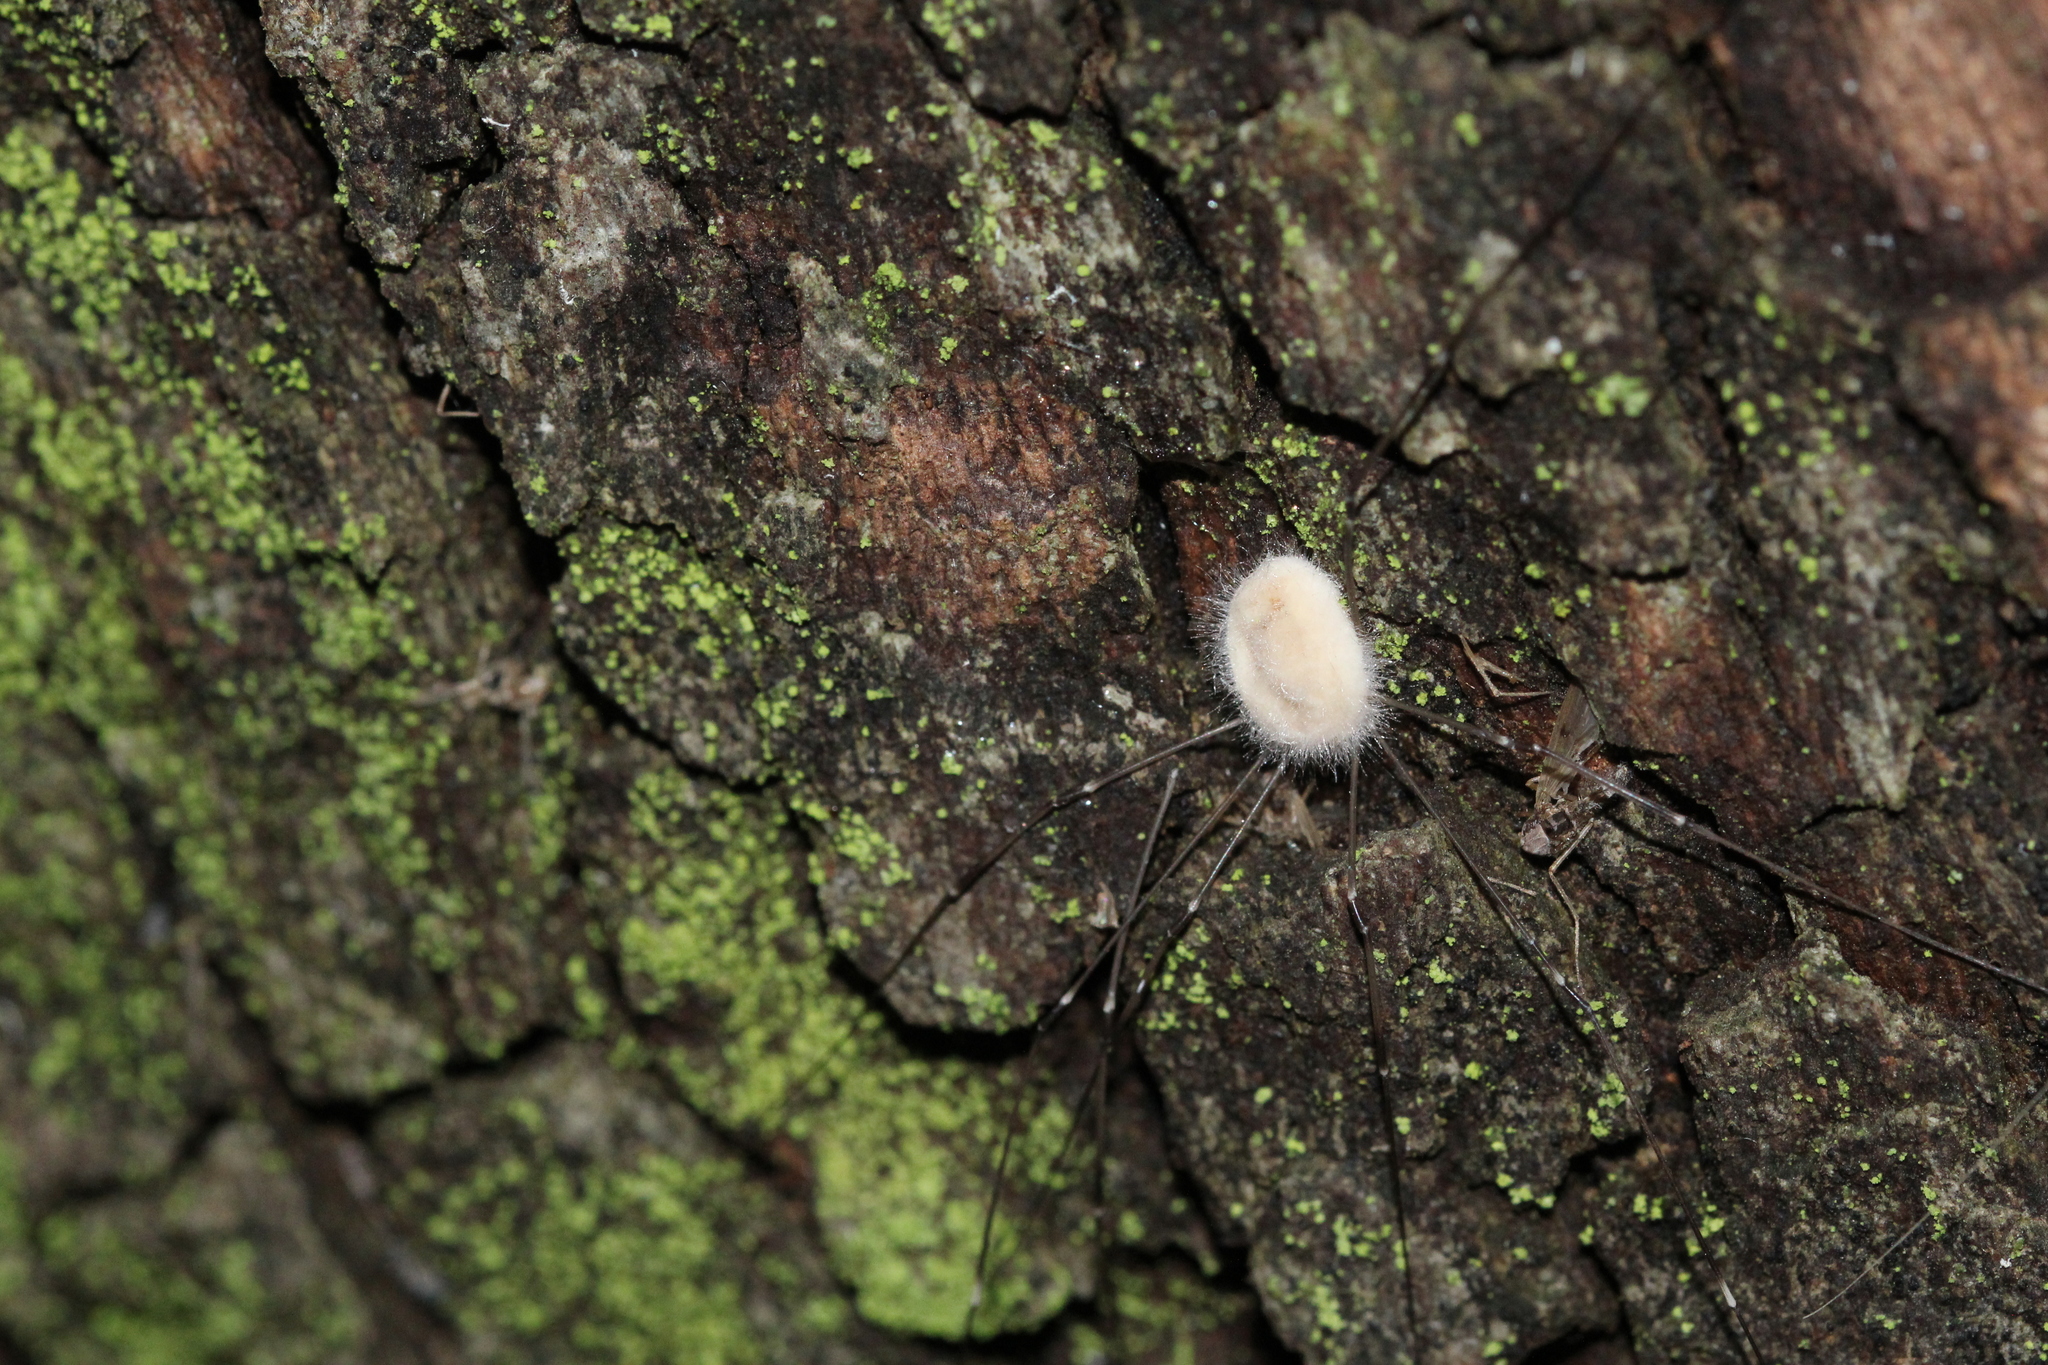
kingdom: Fungi
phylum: Entomophthoromycota
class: Entomophthoromycetes
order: Entomophthorales
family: Entomophthoraceae
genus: Pandora
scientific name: Pandora phalangicida
